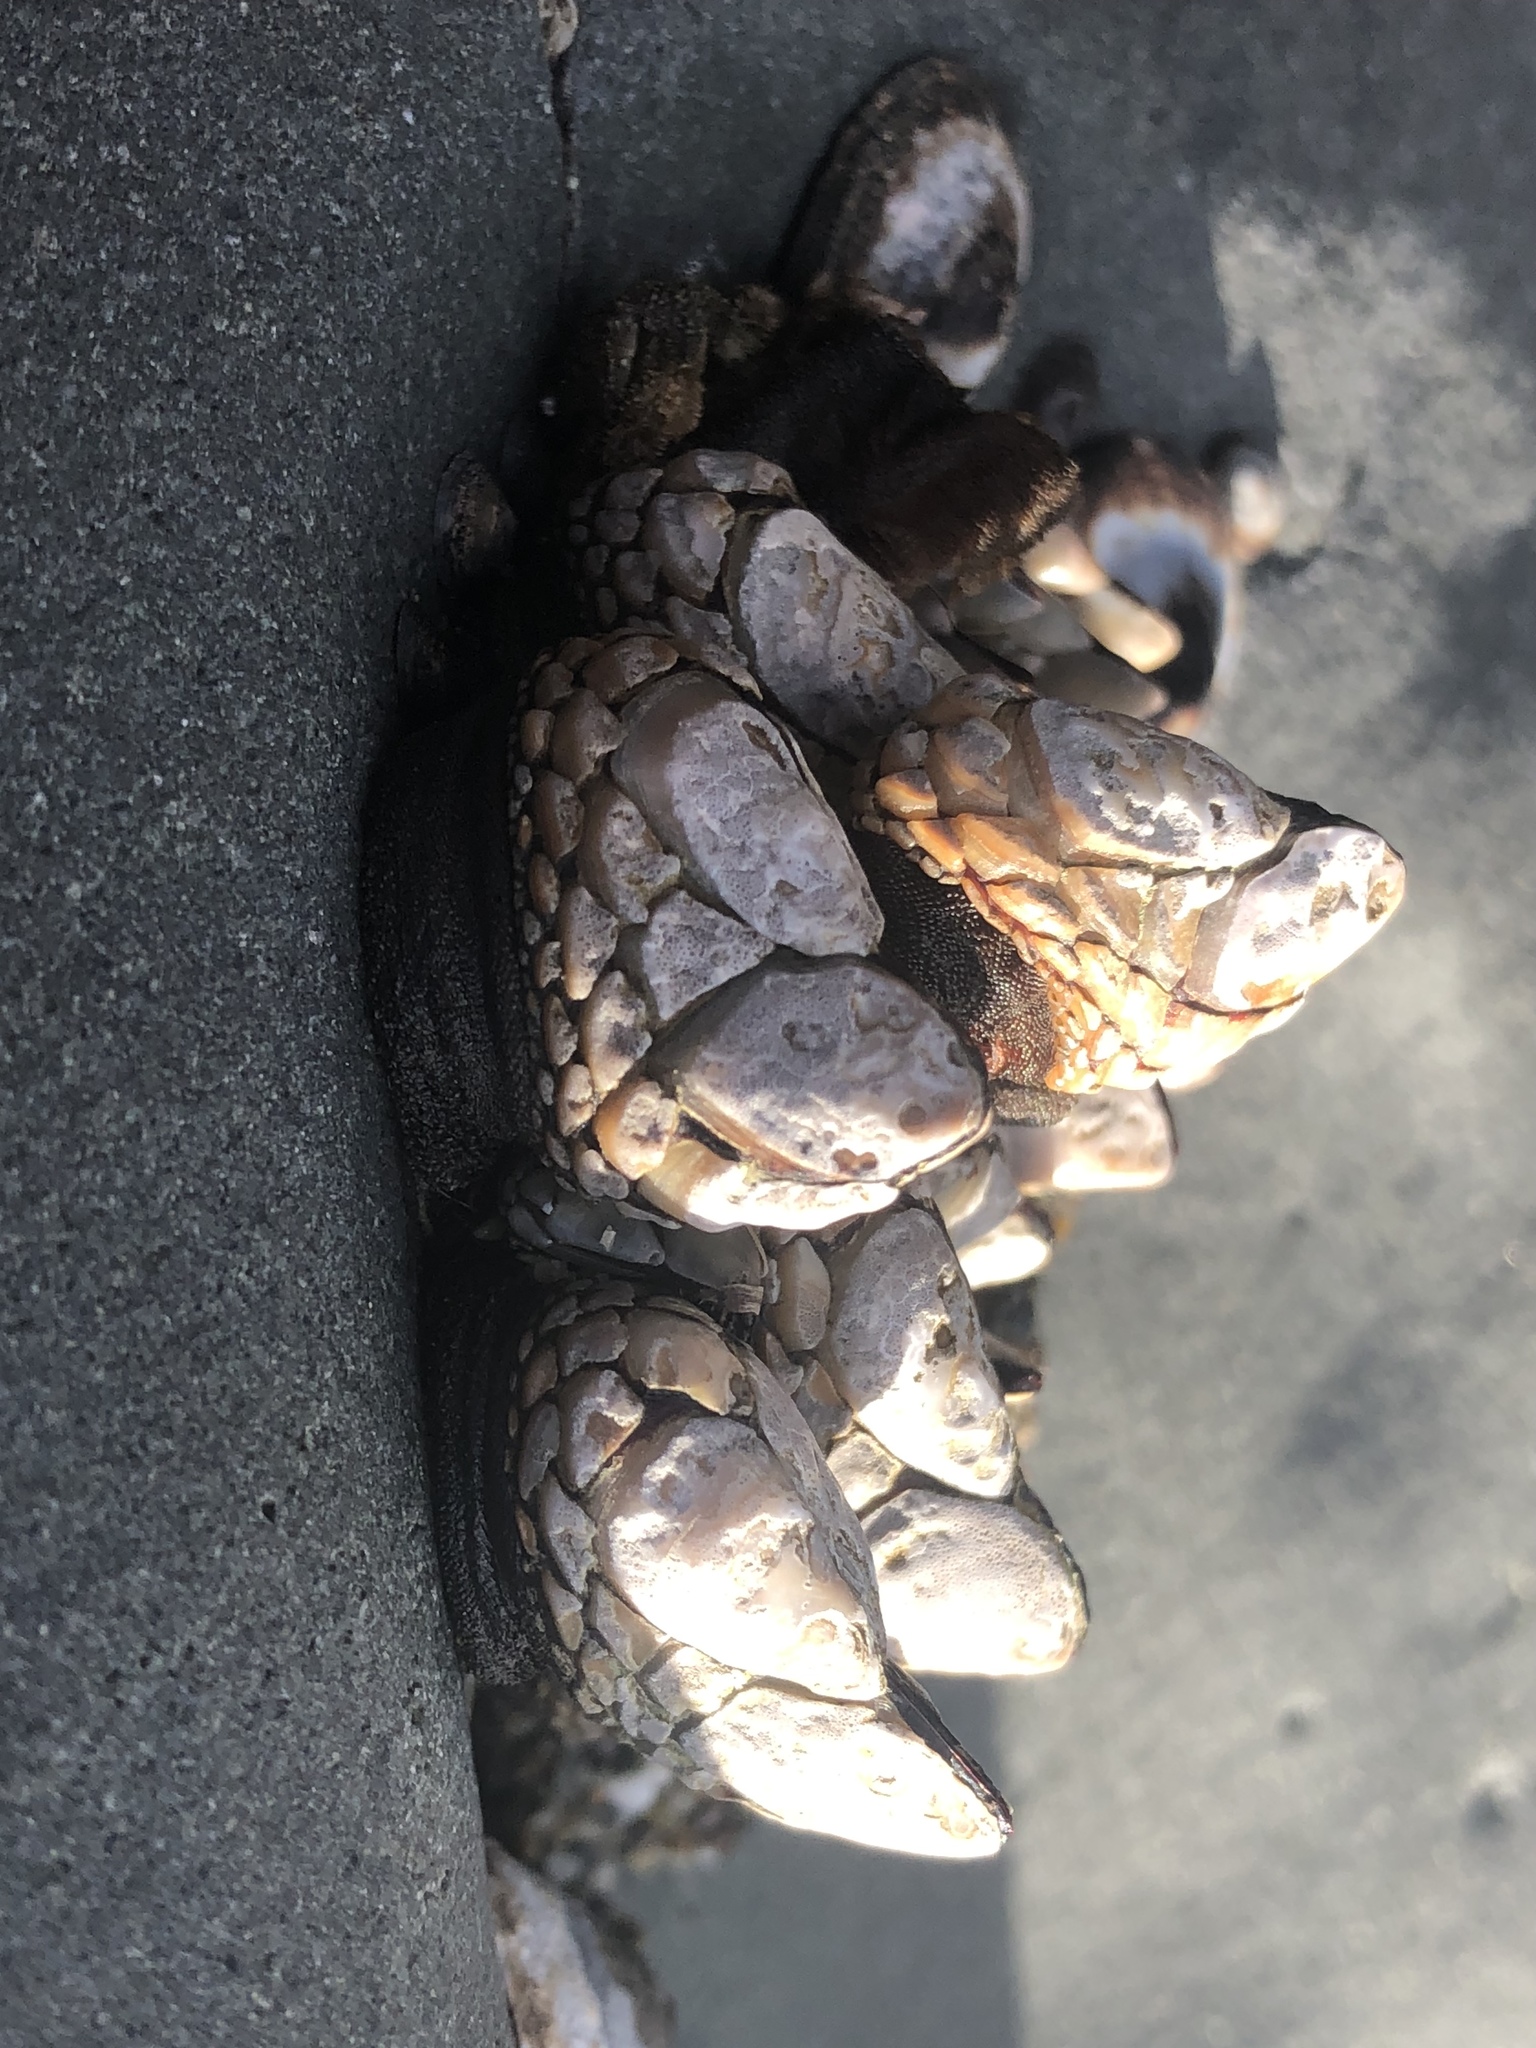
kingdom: Animalia
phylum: Arthropoda
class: Maxillopoda
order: Pedunculata
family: Pollicipedidae
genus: Pollicipes
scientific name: Pollicipes polymerus
